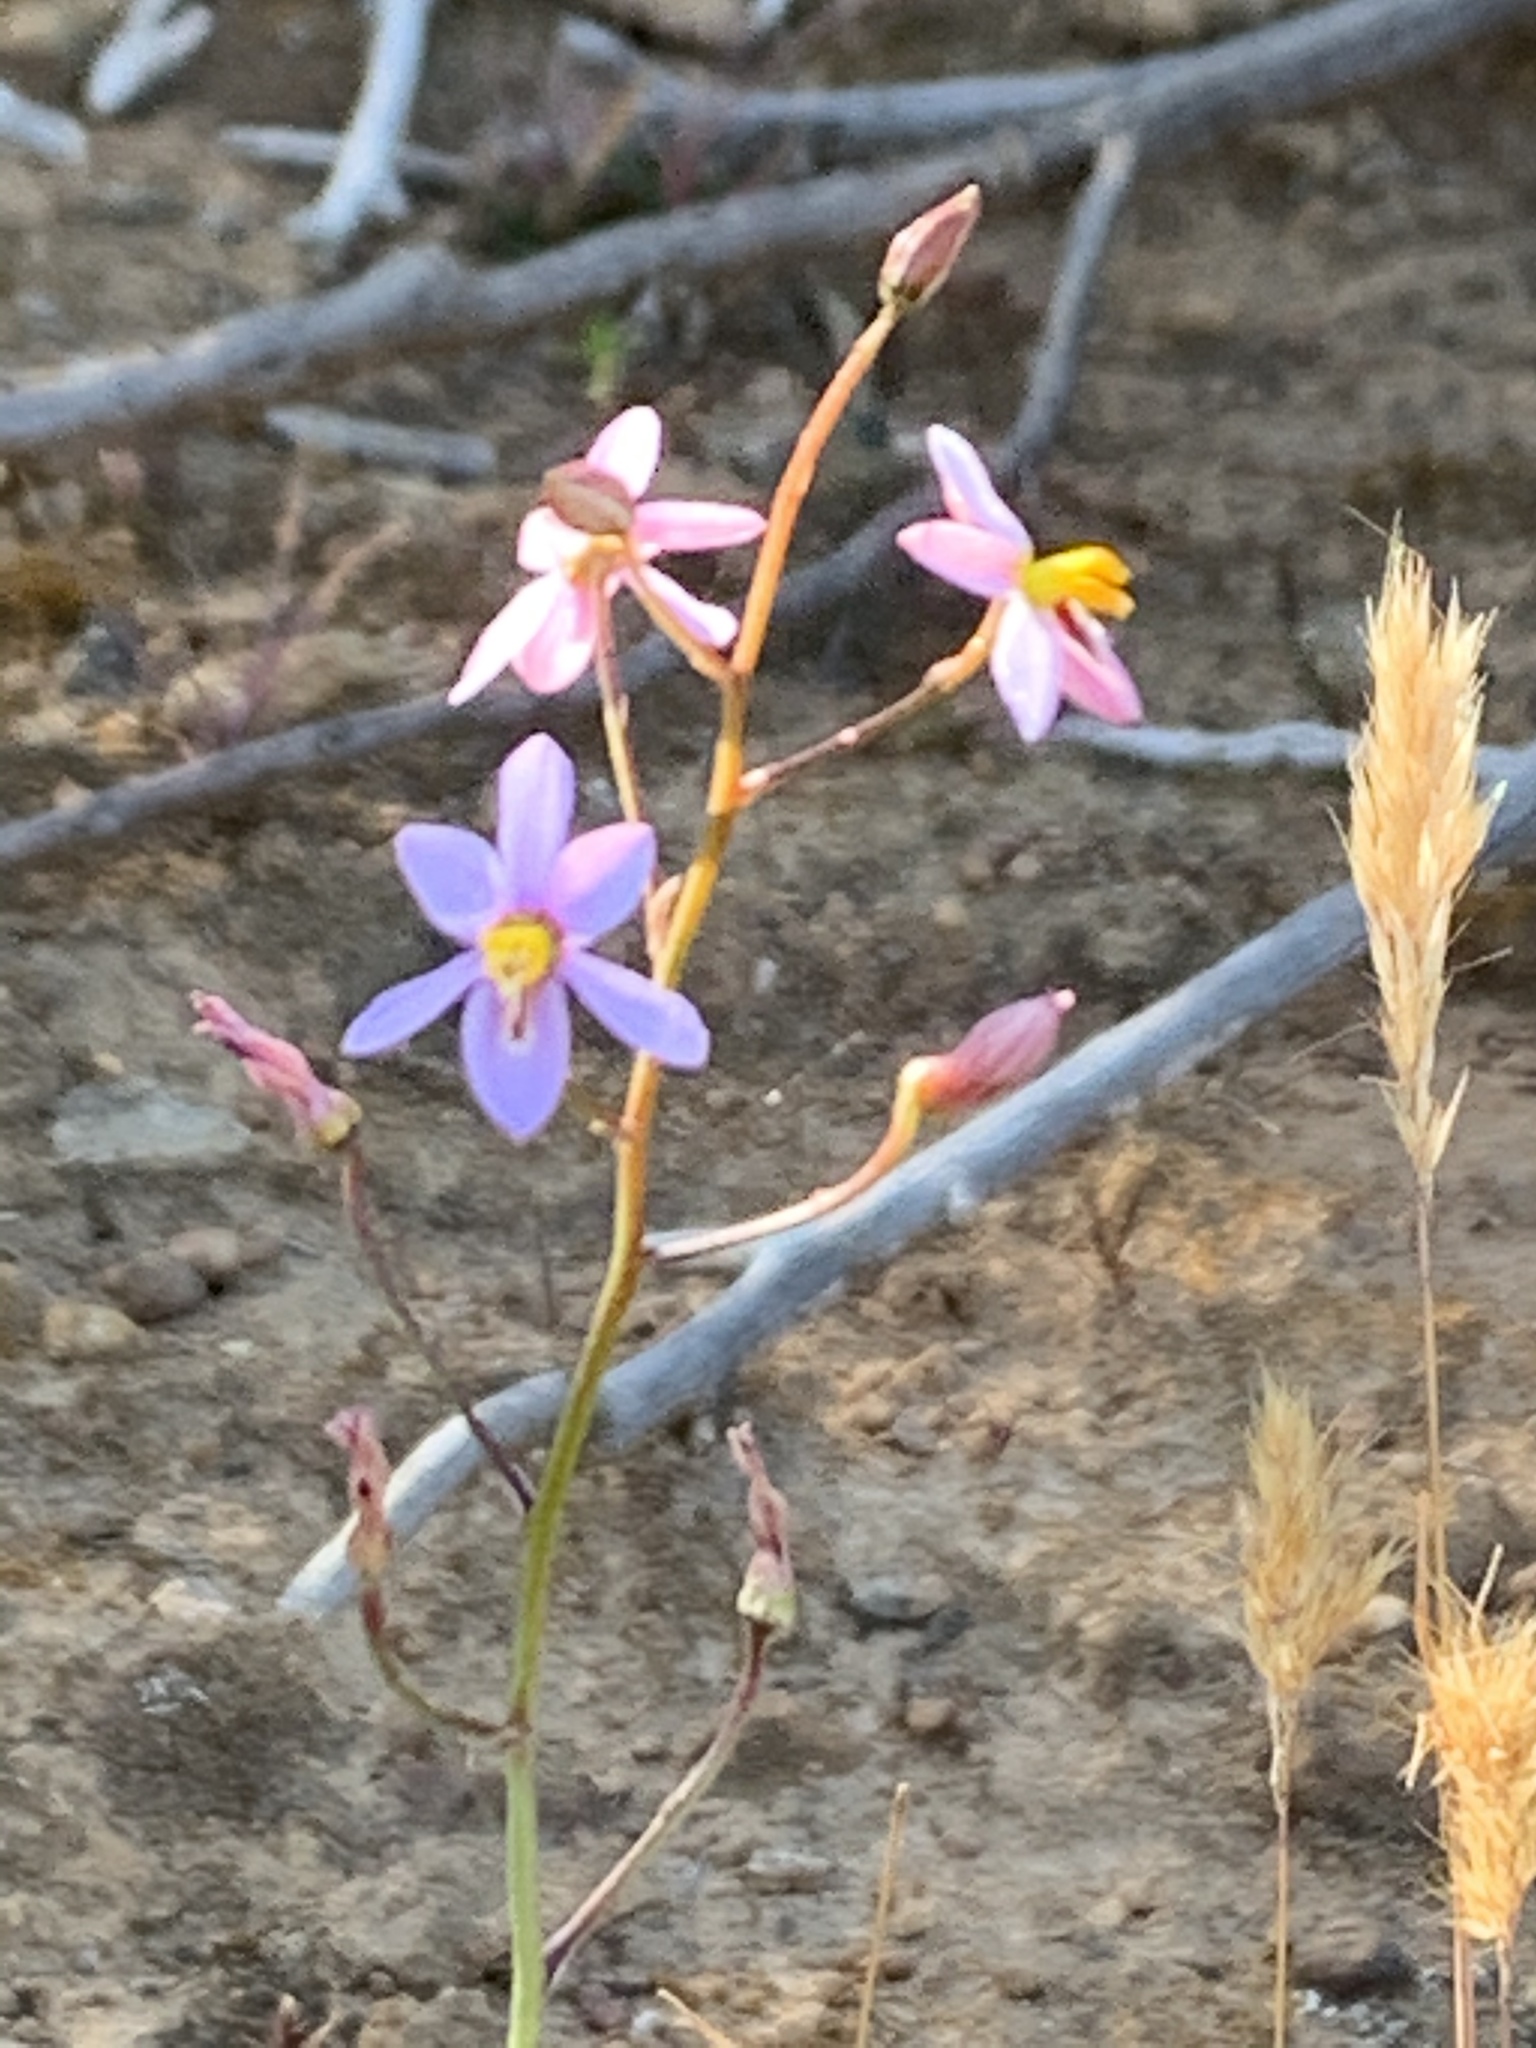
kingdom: Plantae
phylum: Tracheophyta
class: Liliopsida
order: Asparagales
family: Tecophilaeaceae
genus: Cyanella
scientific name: Cyanella hyacinthoides
